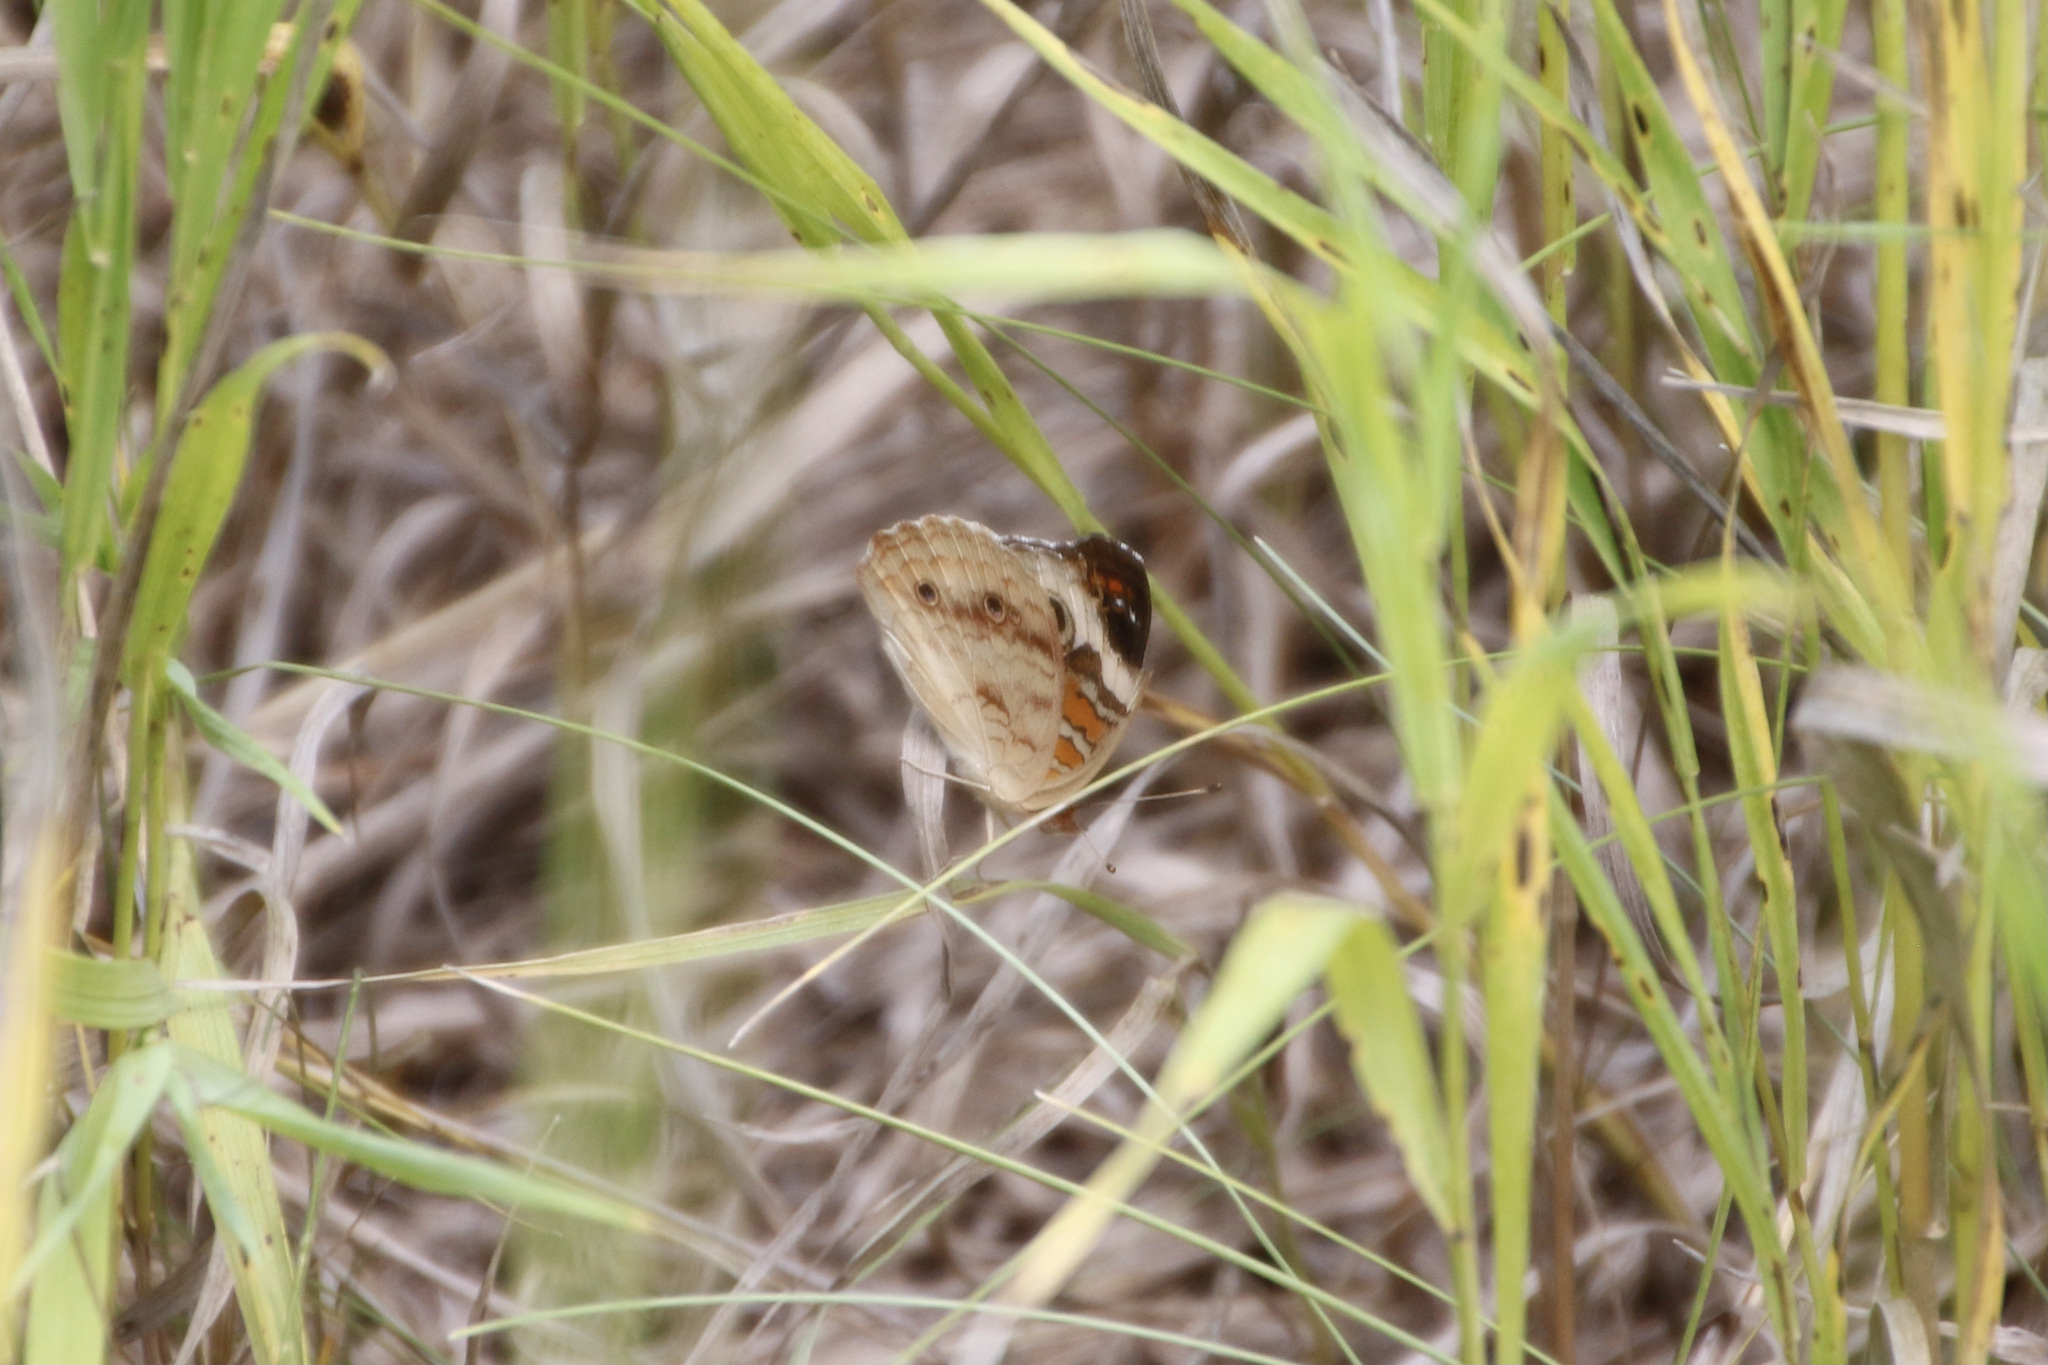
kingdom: Animalia
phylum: Arthropoda
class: Insecta
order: Lepidoptera
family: Nymphalidae
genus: Junonia
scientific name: Junonia coenia
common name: Common buckeye
